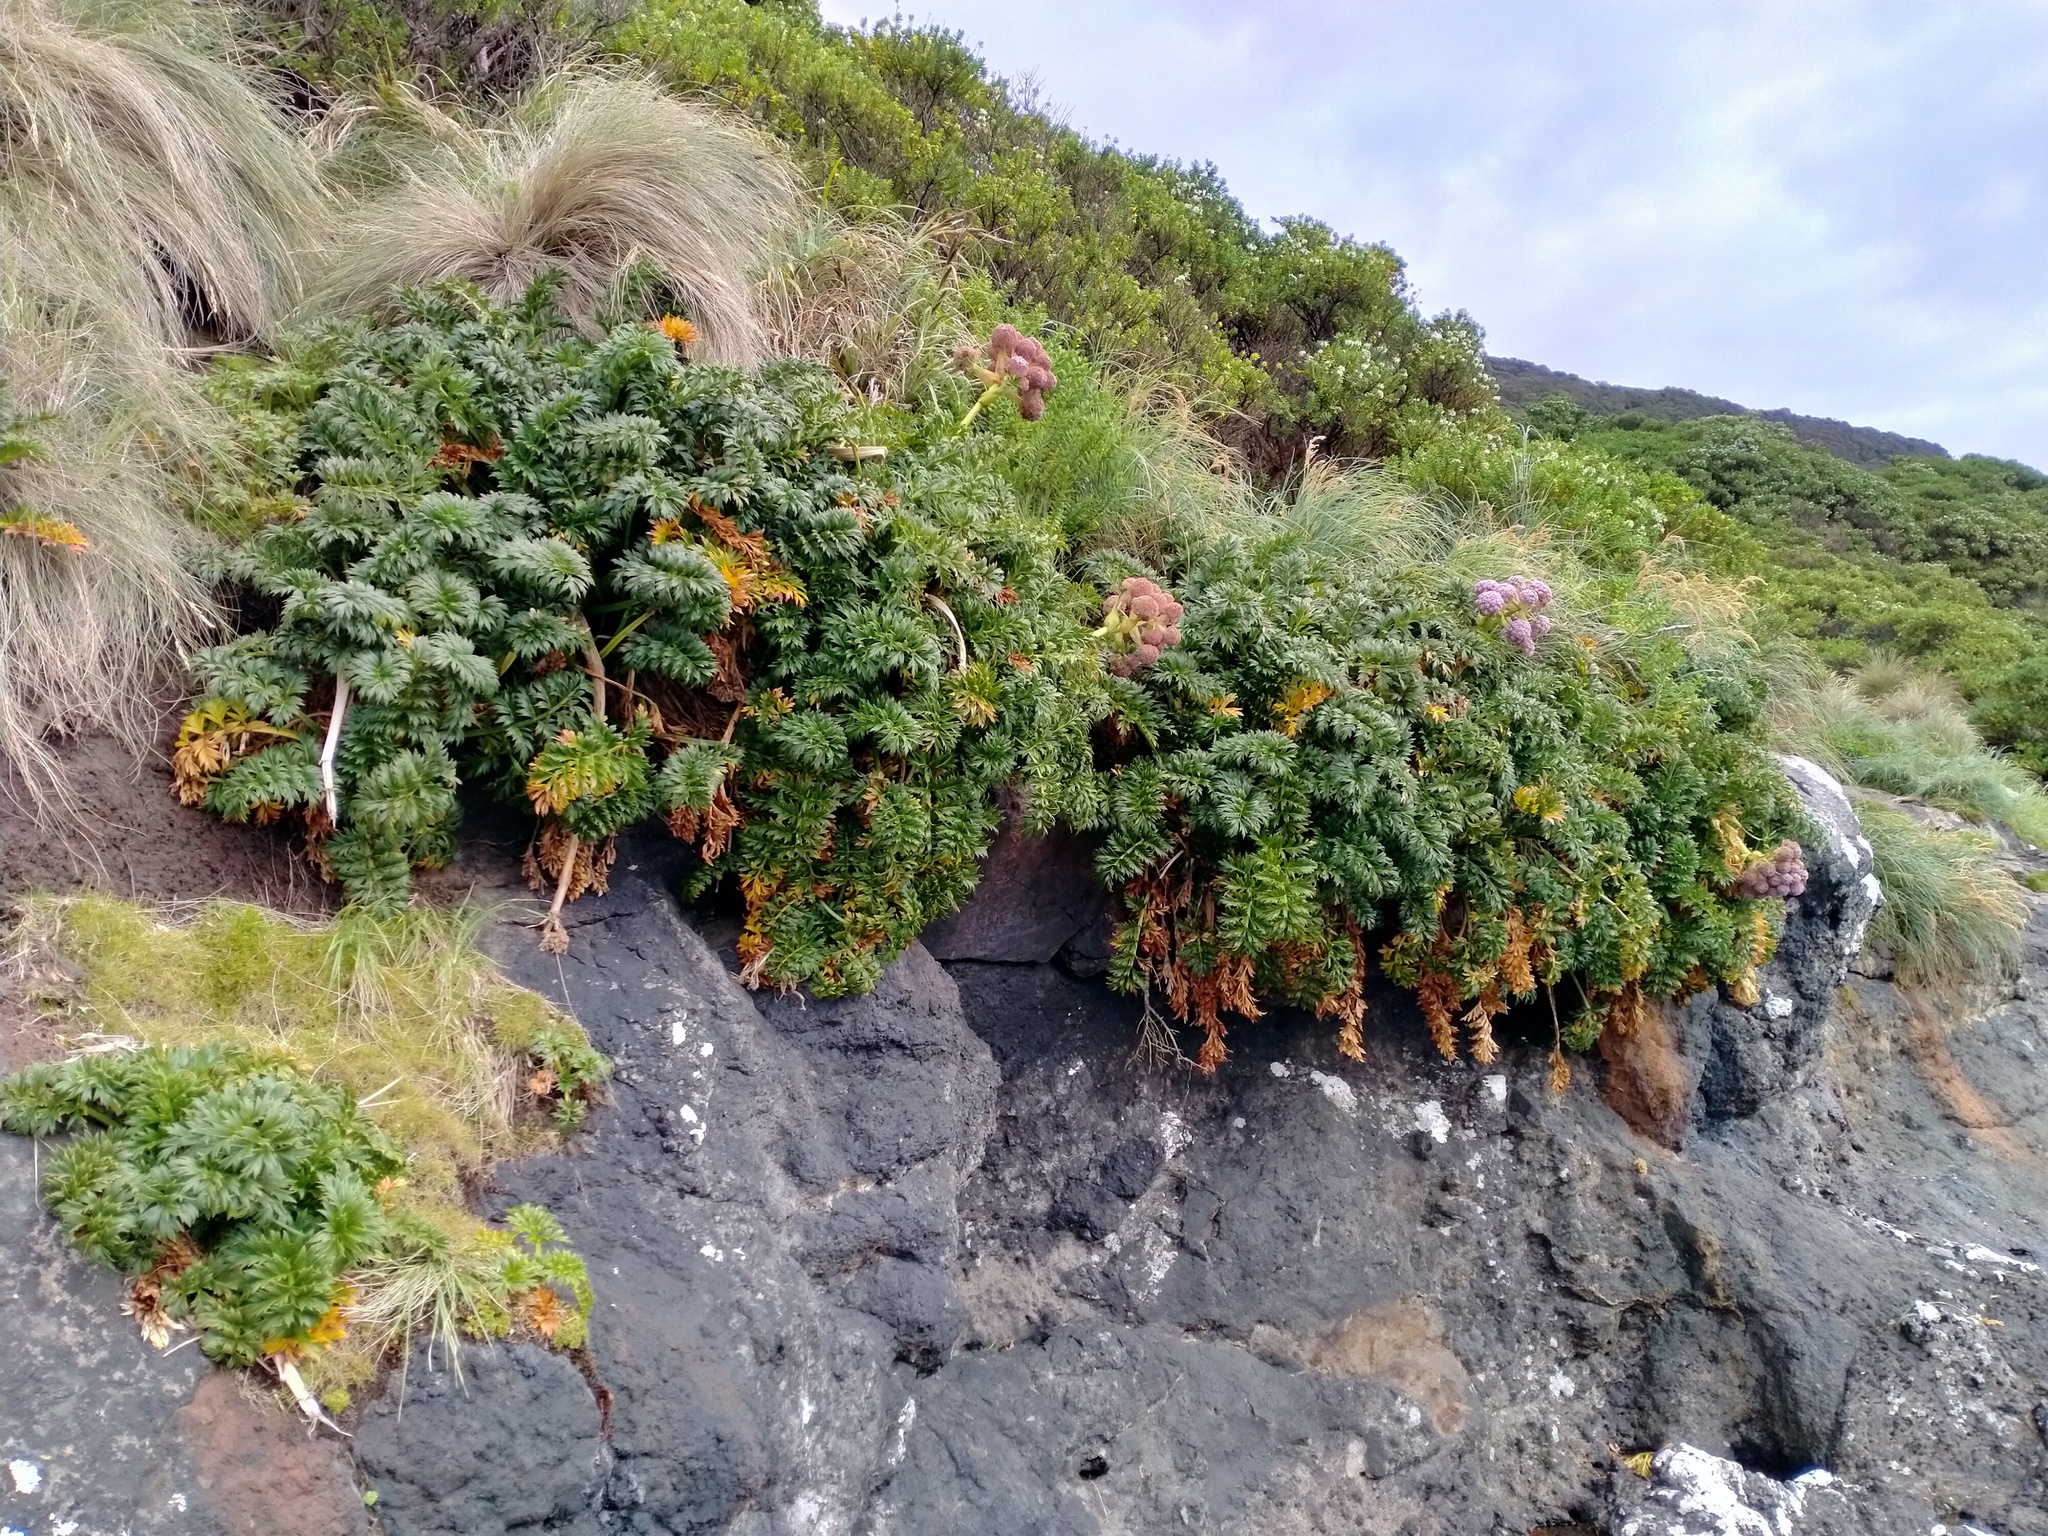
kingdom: Plantae
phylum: Tracheophyta
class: Magnoliopsida
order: Apiales
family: Apiaceae
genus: Anisotome
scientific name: Anisotome latifolia
